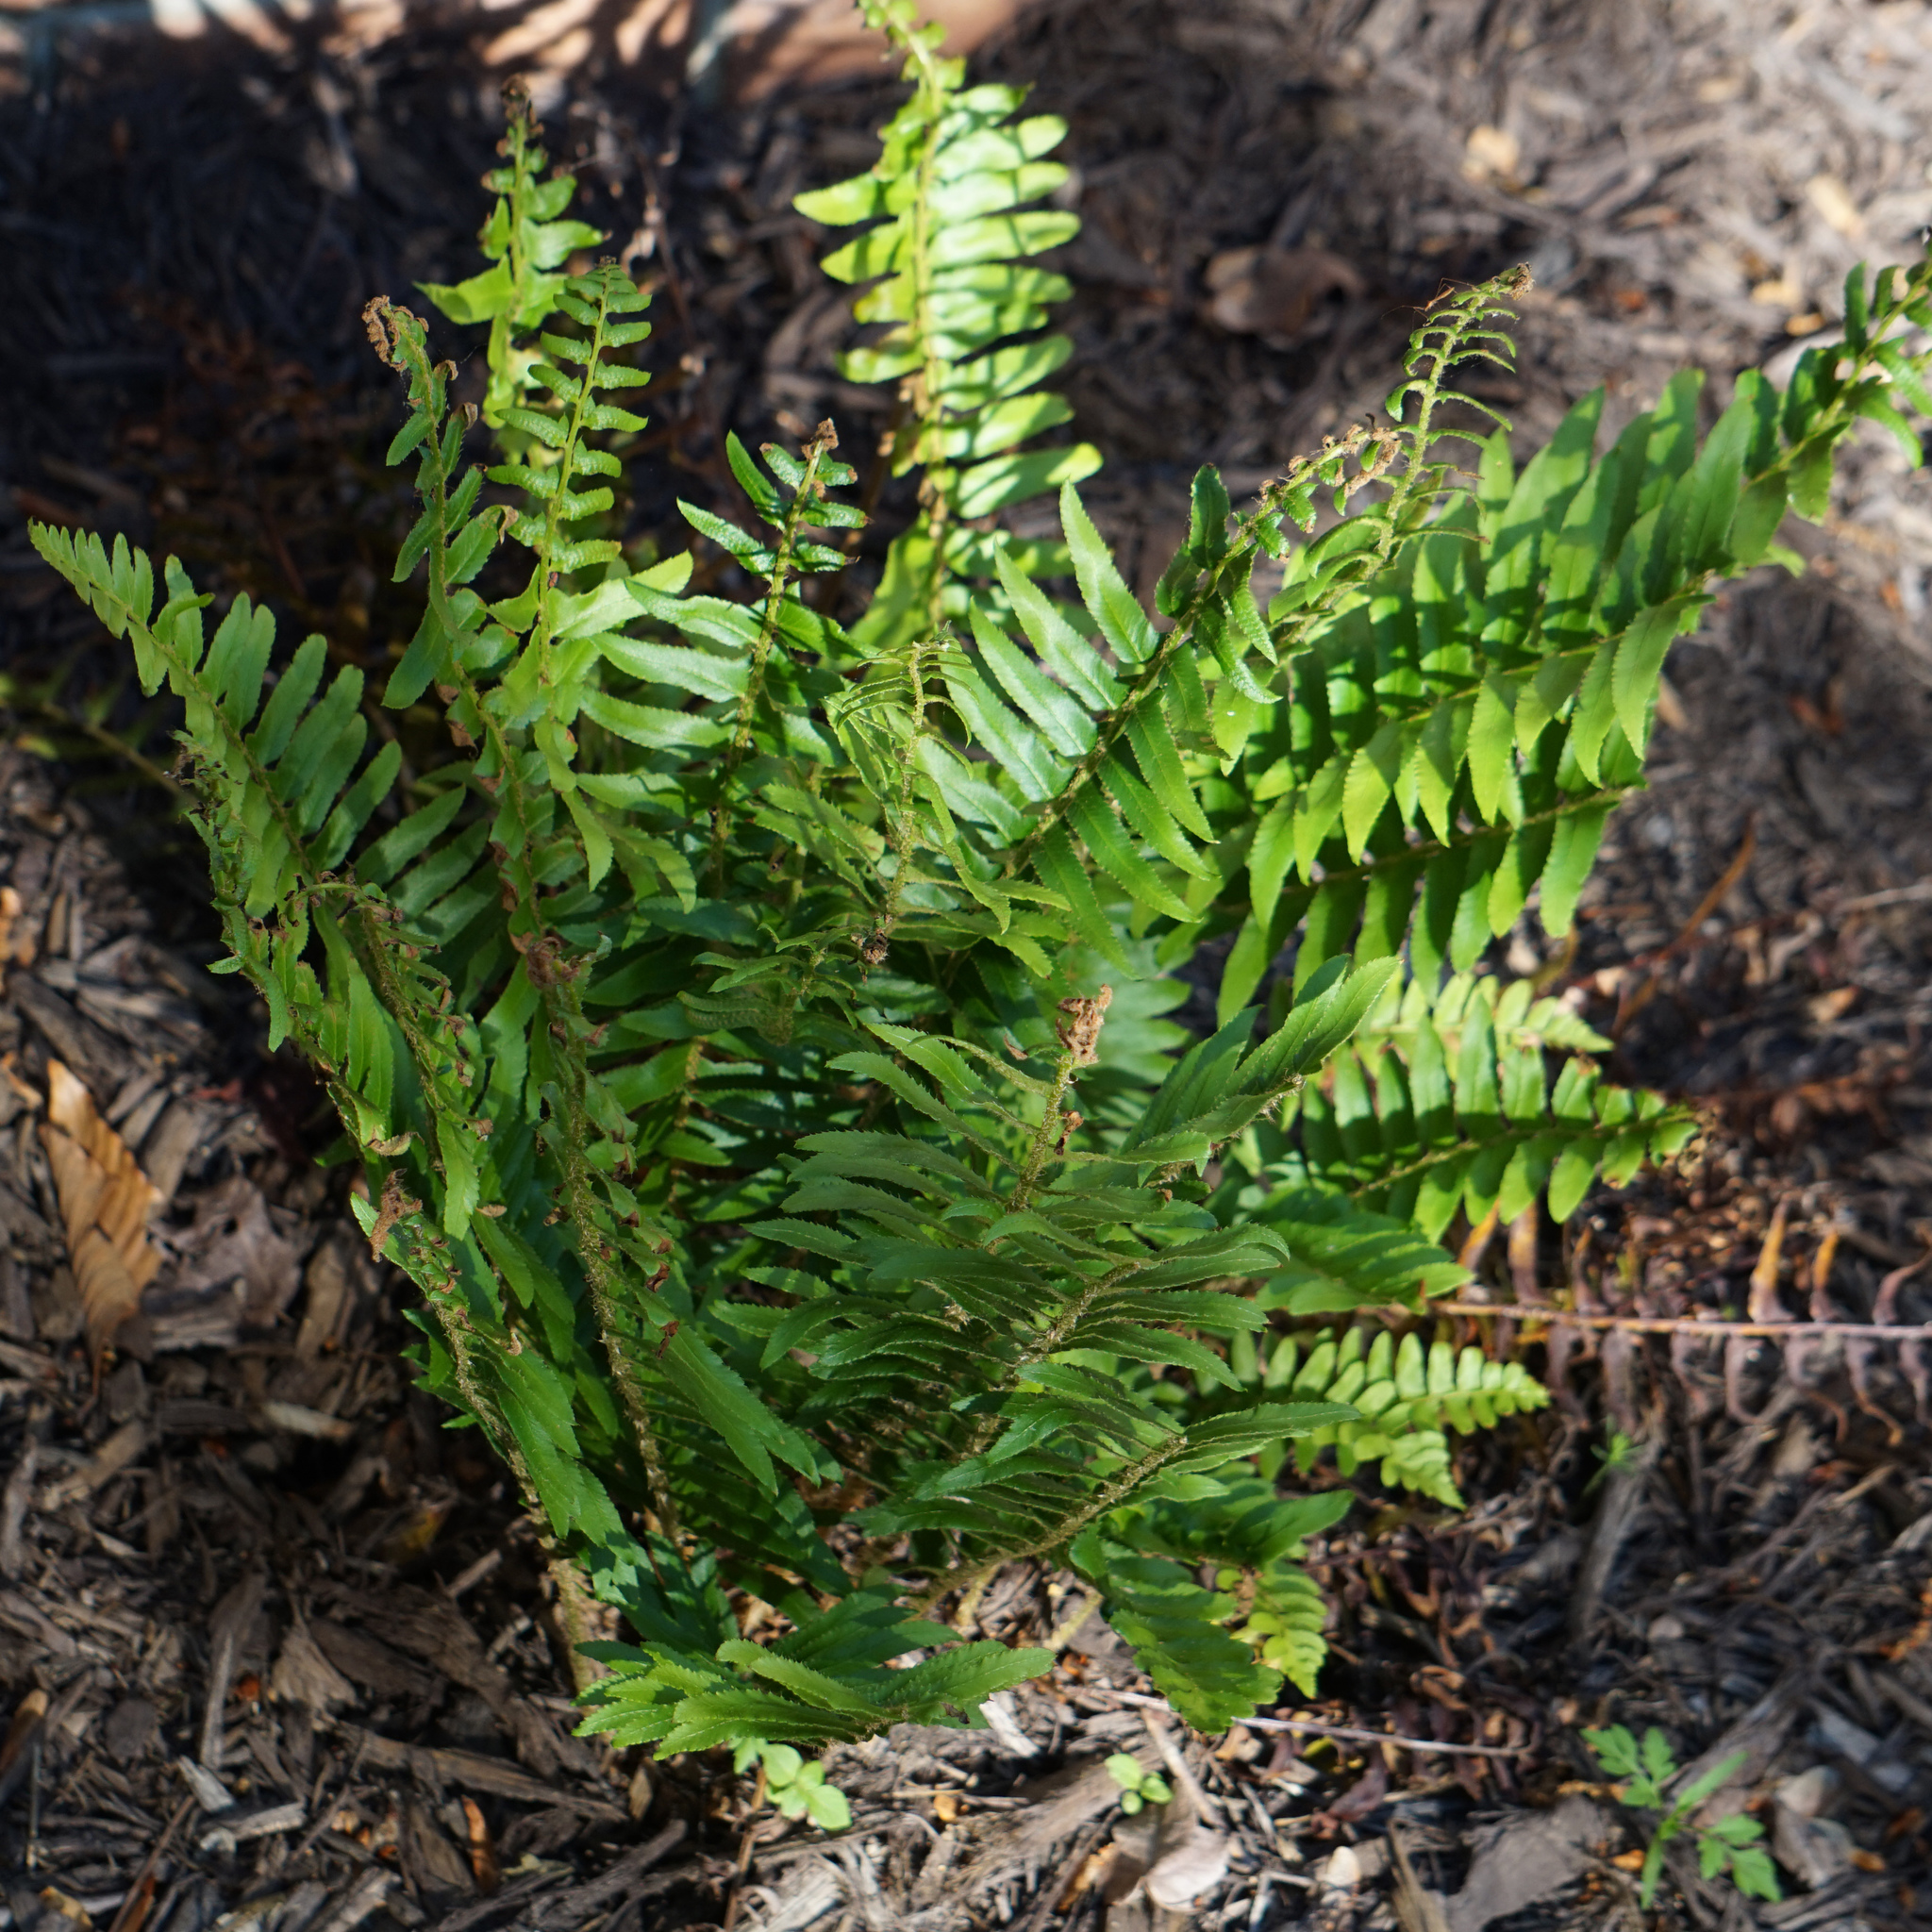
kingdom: Plantae
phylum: Tracheophyta
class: Polypodiopsida
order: Polypodiales
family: Dryopteridaceae
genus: Polystichum
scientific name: Polystichum acrostichoides
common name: Christmas fern
